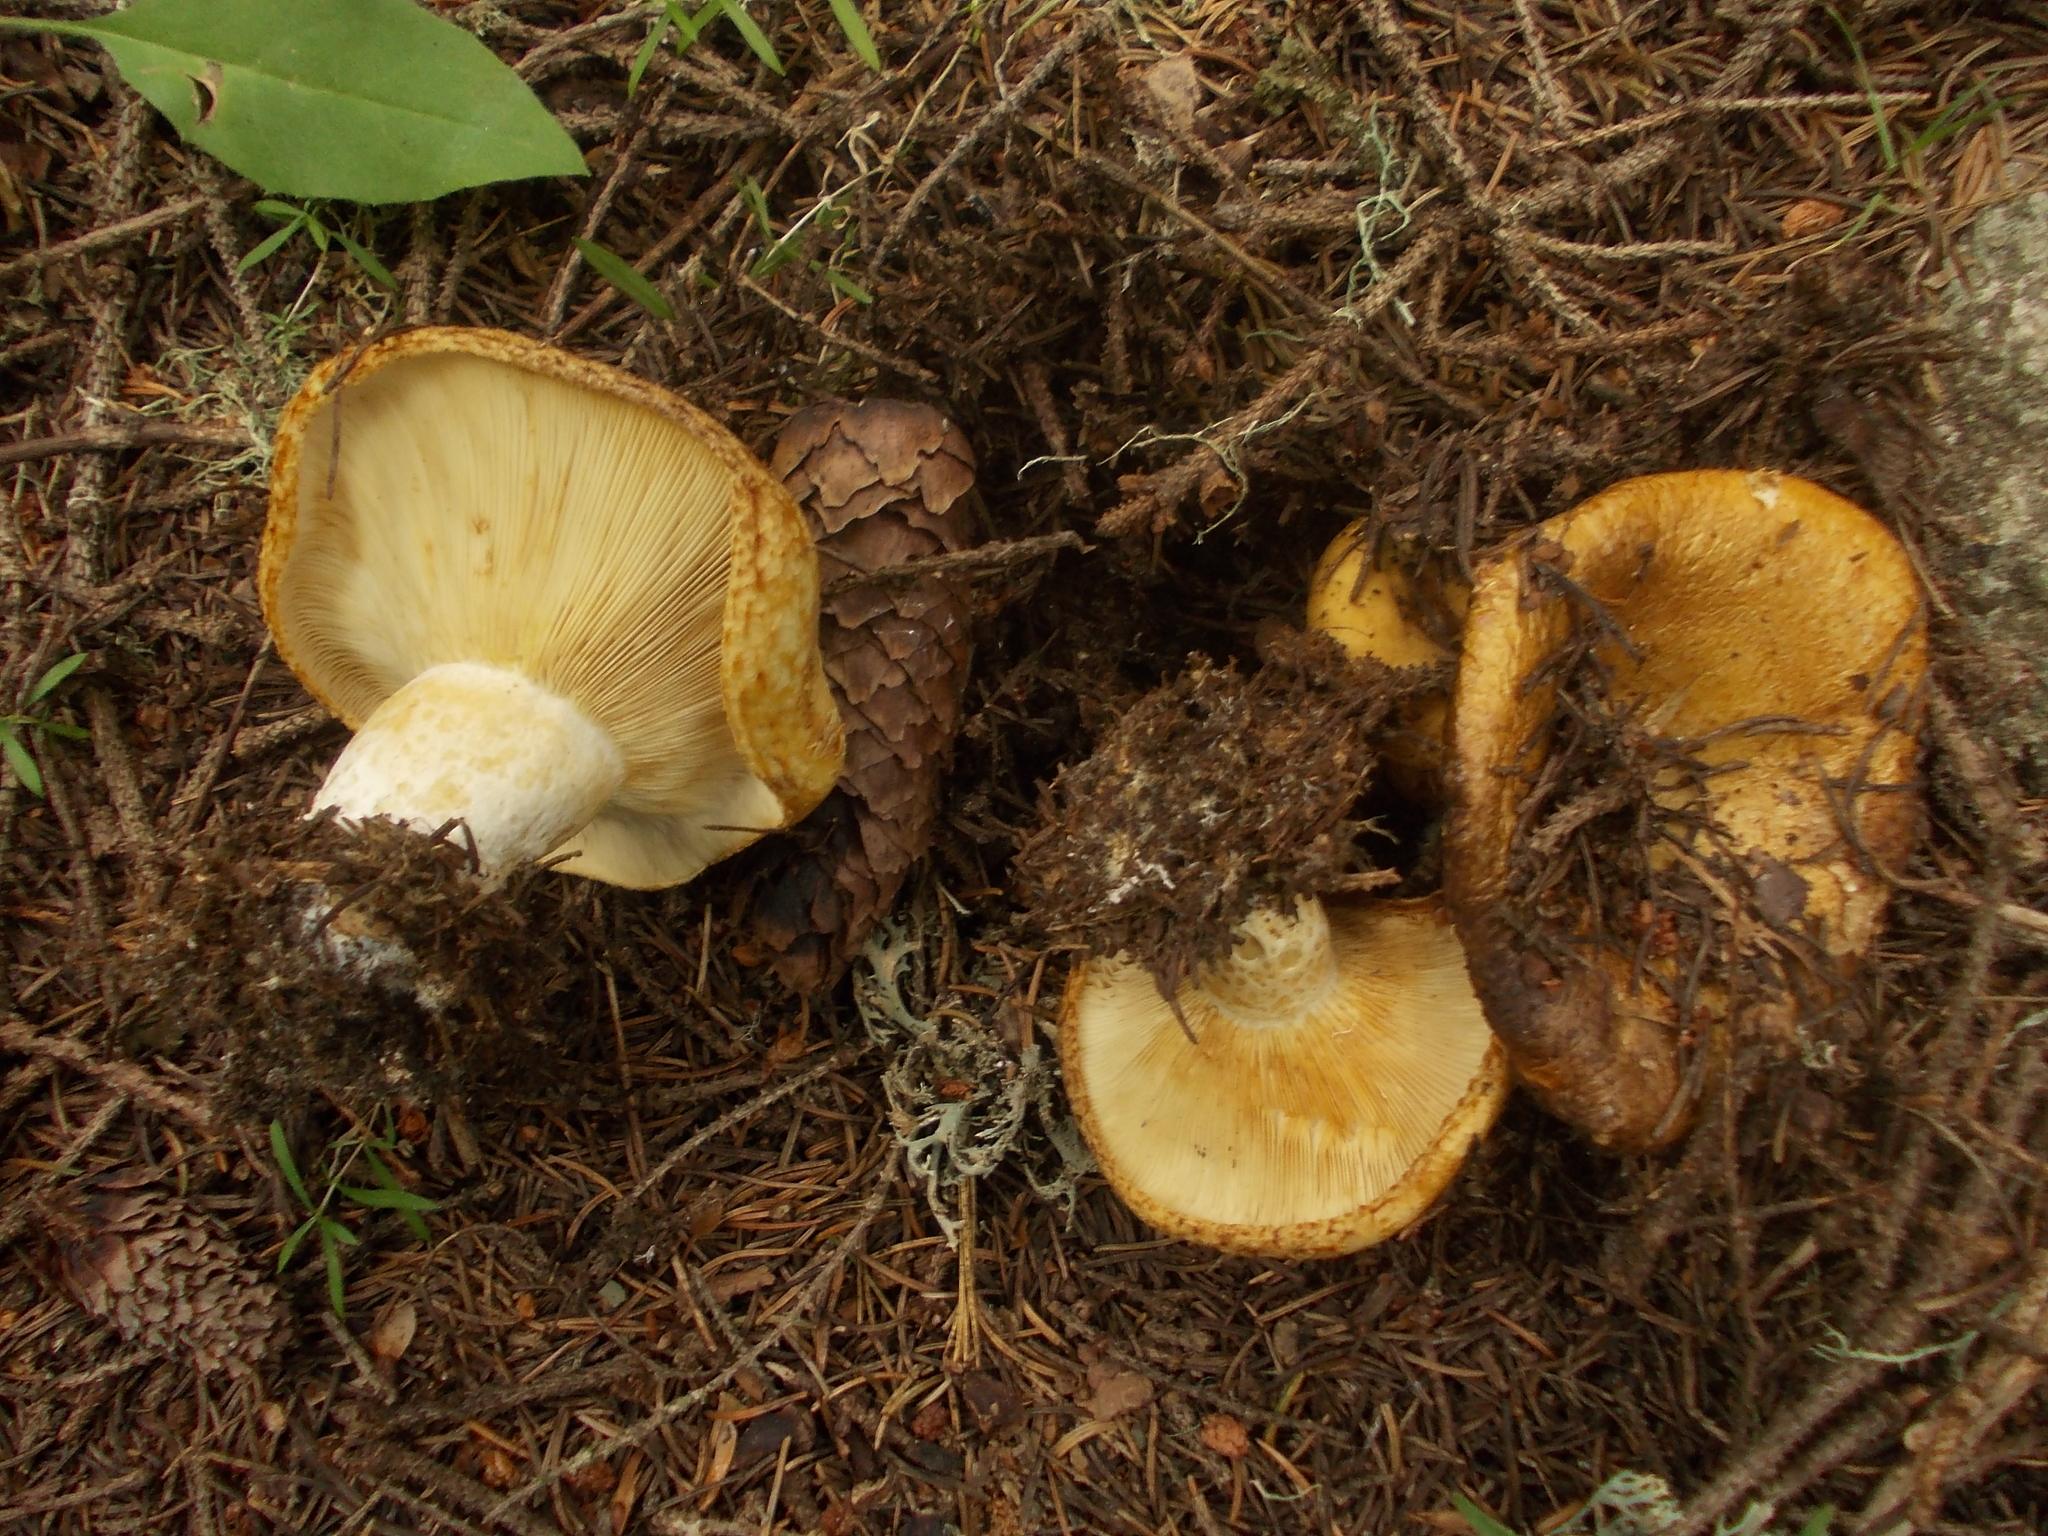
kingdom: Fungi
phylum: Basidiomycota
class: Agaricomycetes
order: Russulales
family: Russulaceae
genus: Lactarius
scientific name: Lactarius scrobiculatus
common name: Spotted milkcap
